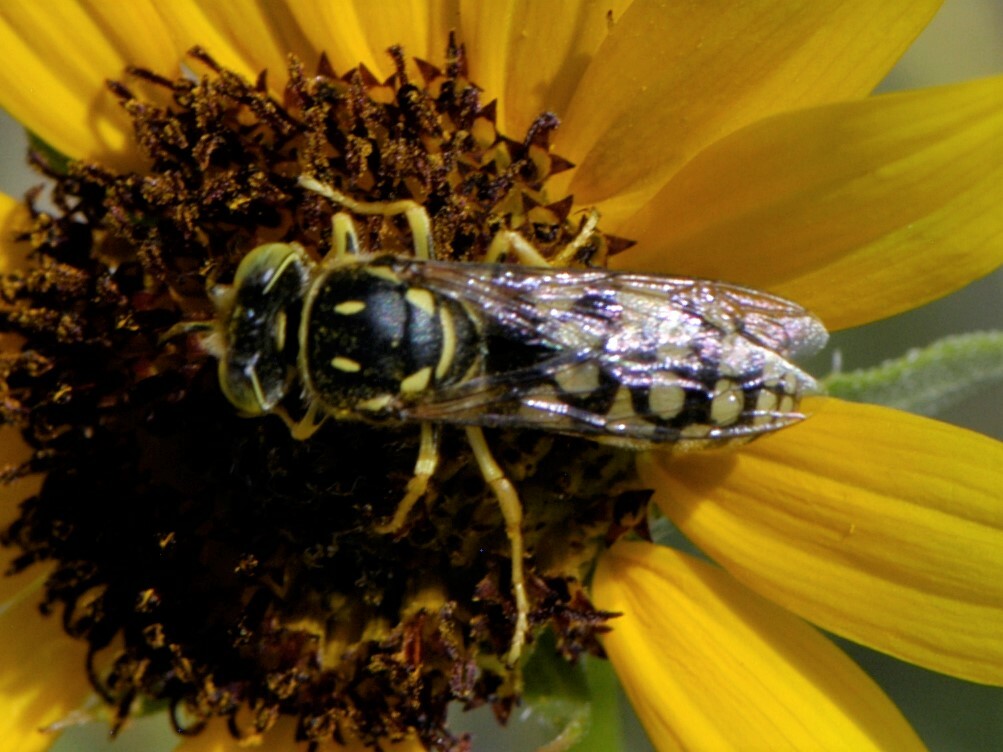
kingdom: Animalia
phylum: Arthropoda
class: Insecta
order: Hymenoptera
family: Crabronidae
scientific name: Crabronidae
